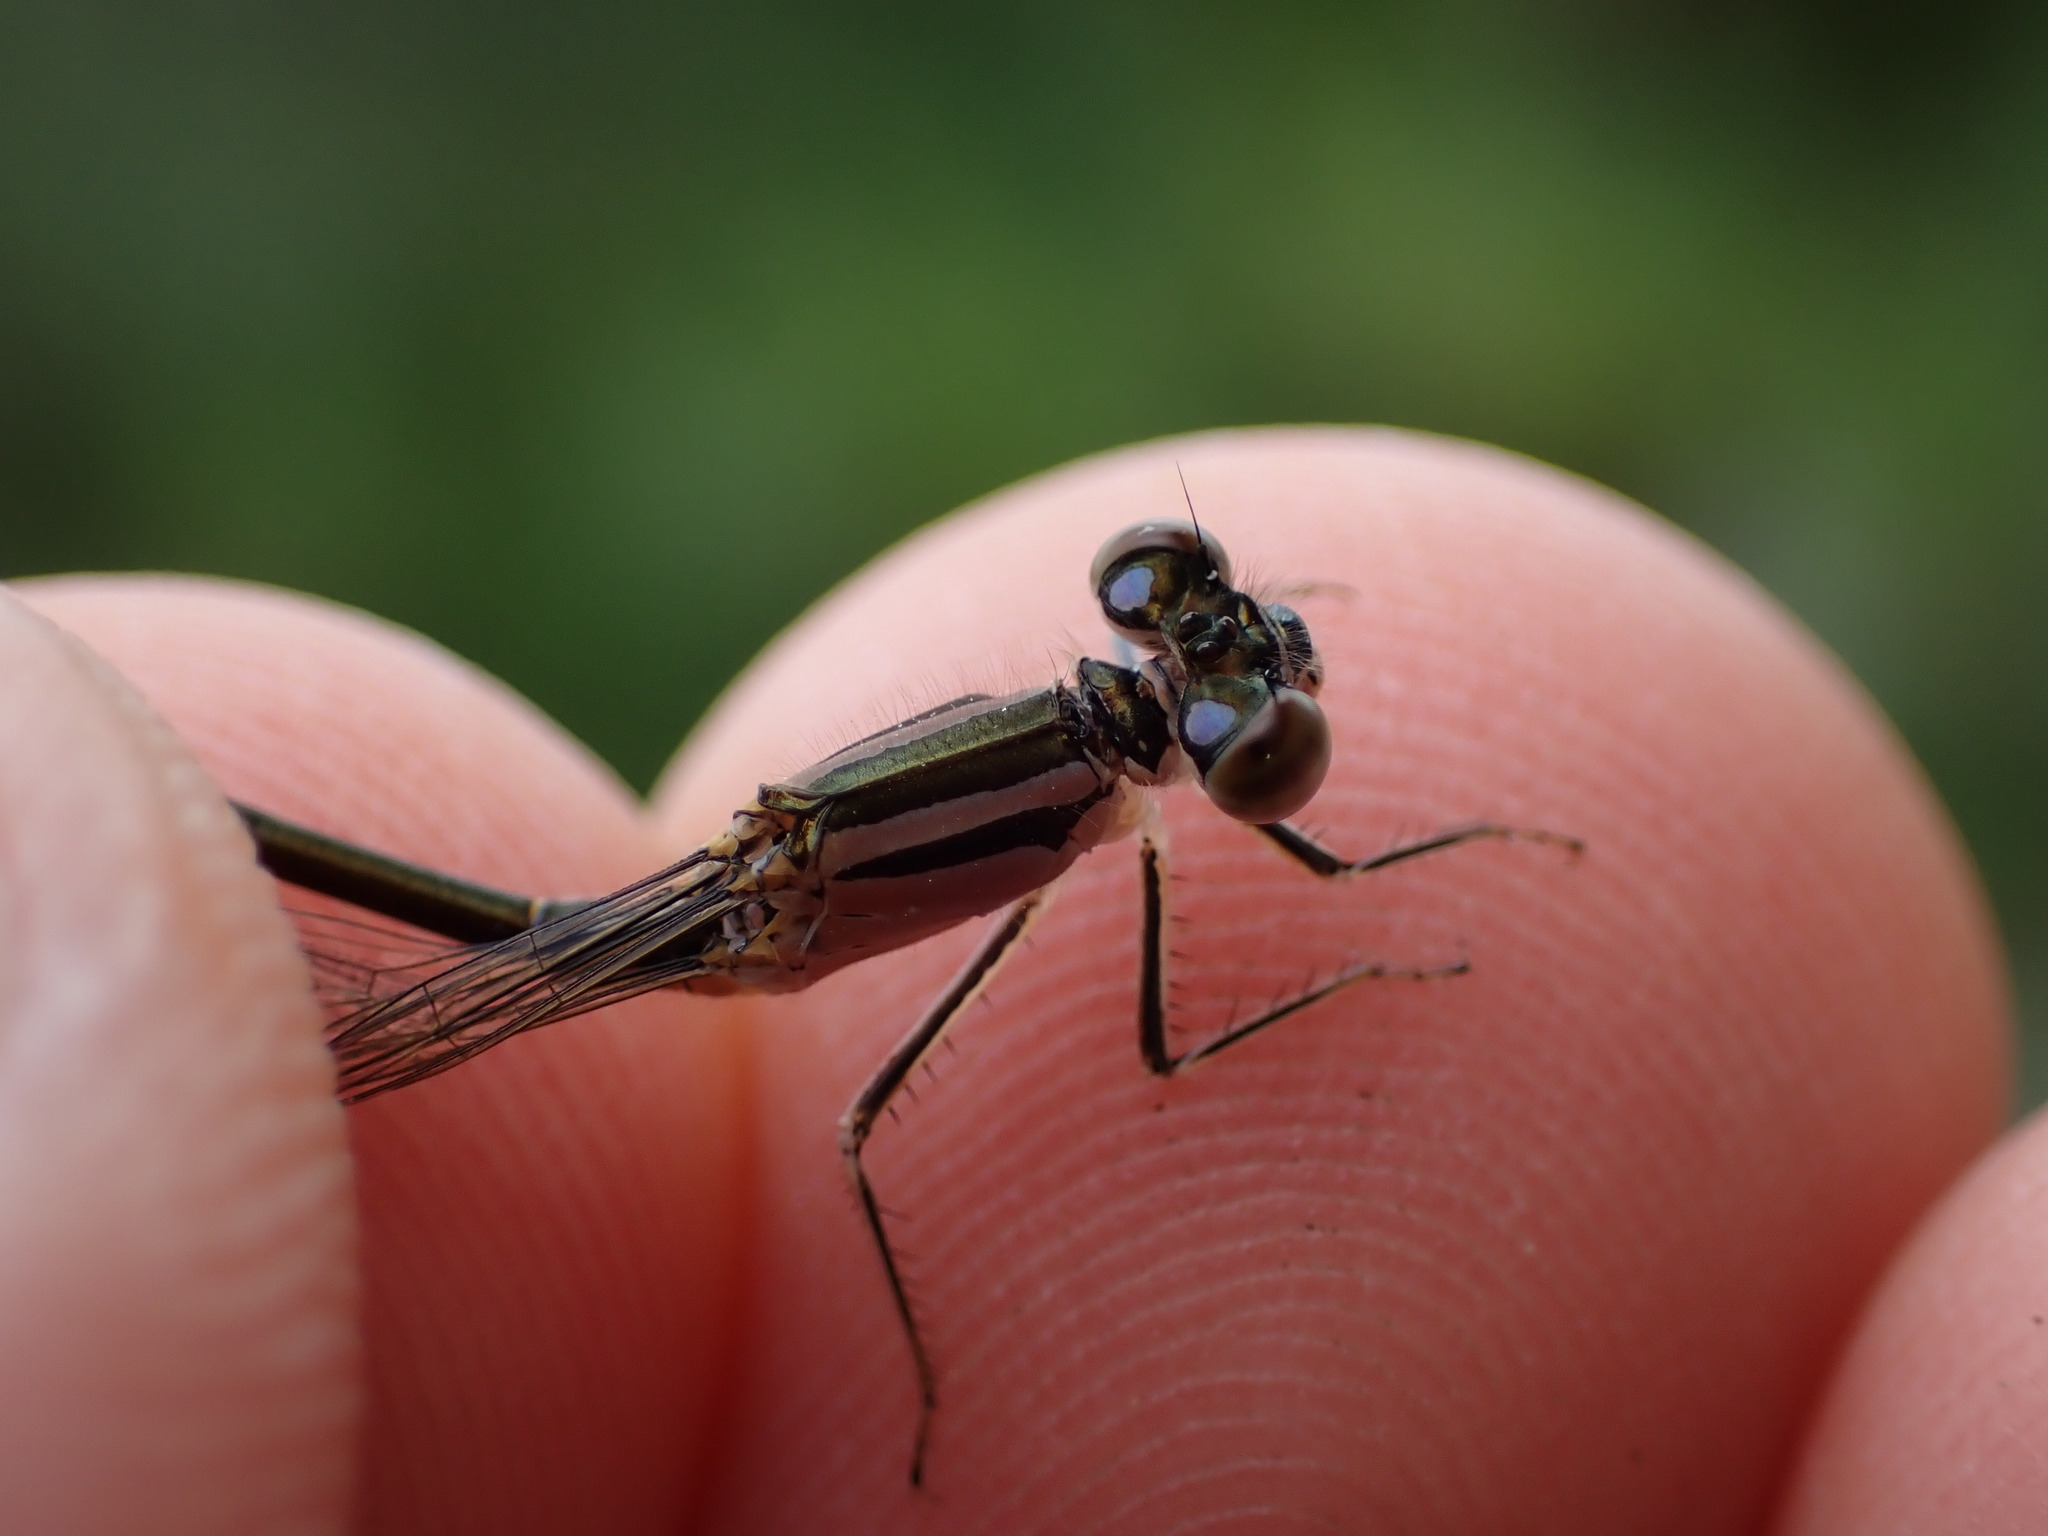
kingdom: Animalia
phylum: Arthropoda
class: Insecta
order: Odonata
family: Coenagrionidae
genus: Ischnura
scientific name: Ischnura elegans
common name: Blue-tailed damselfly
